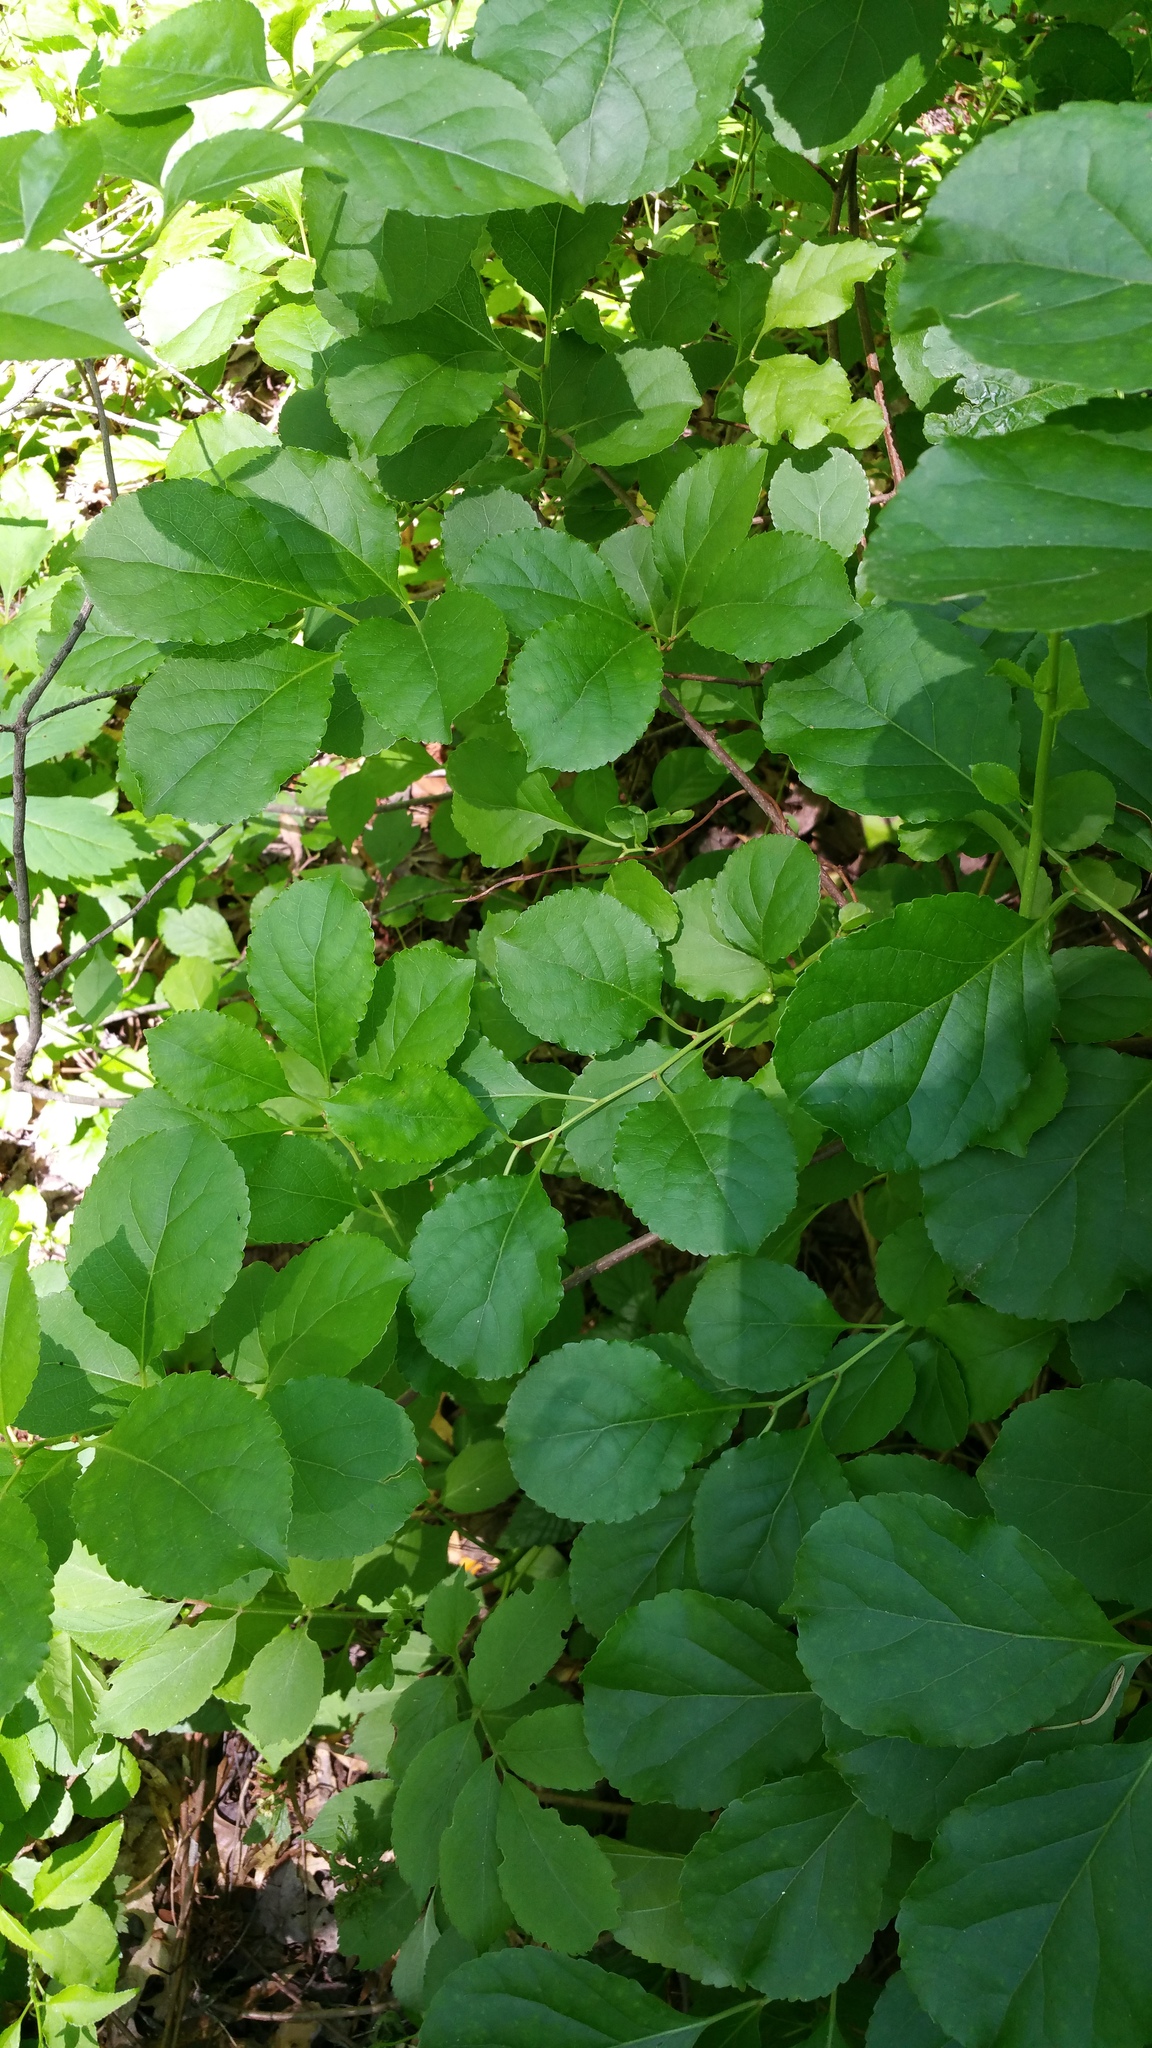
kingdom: Plantae
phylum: Tracheophyta
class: Magnoliopsida
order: Celastrales
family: Celastraceae
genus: Celastrus
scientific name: Celastrus orbiculatus
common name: Oriental bittersweet
